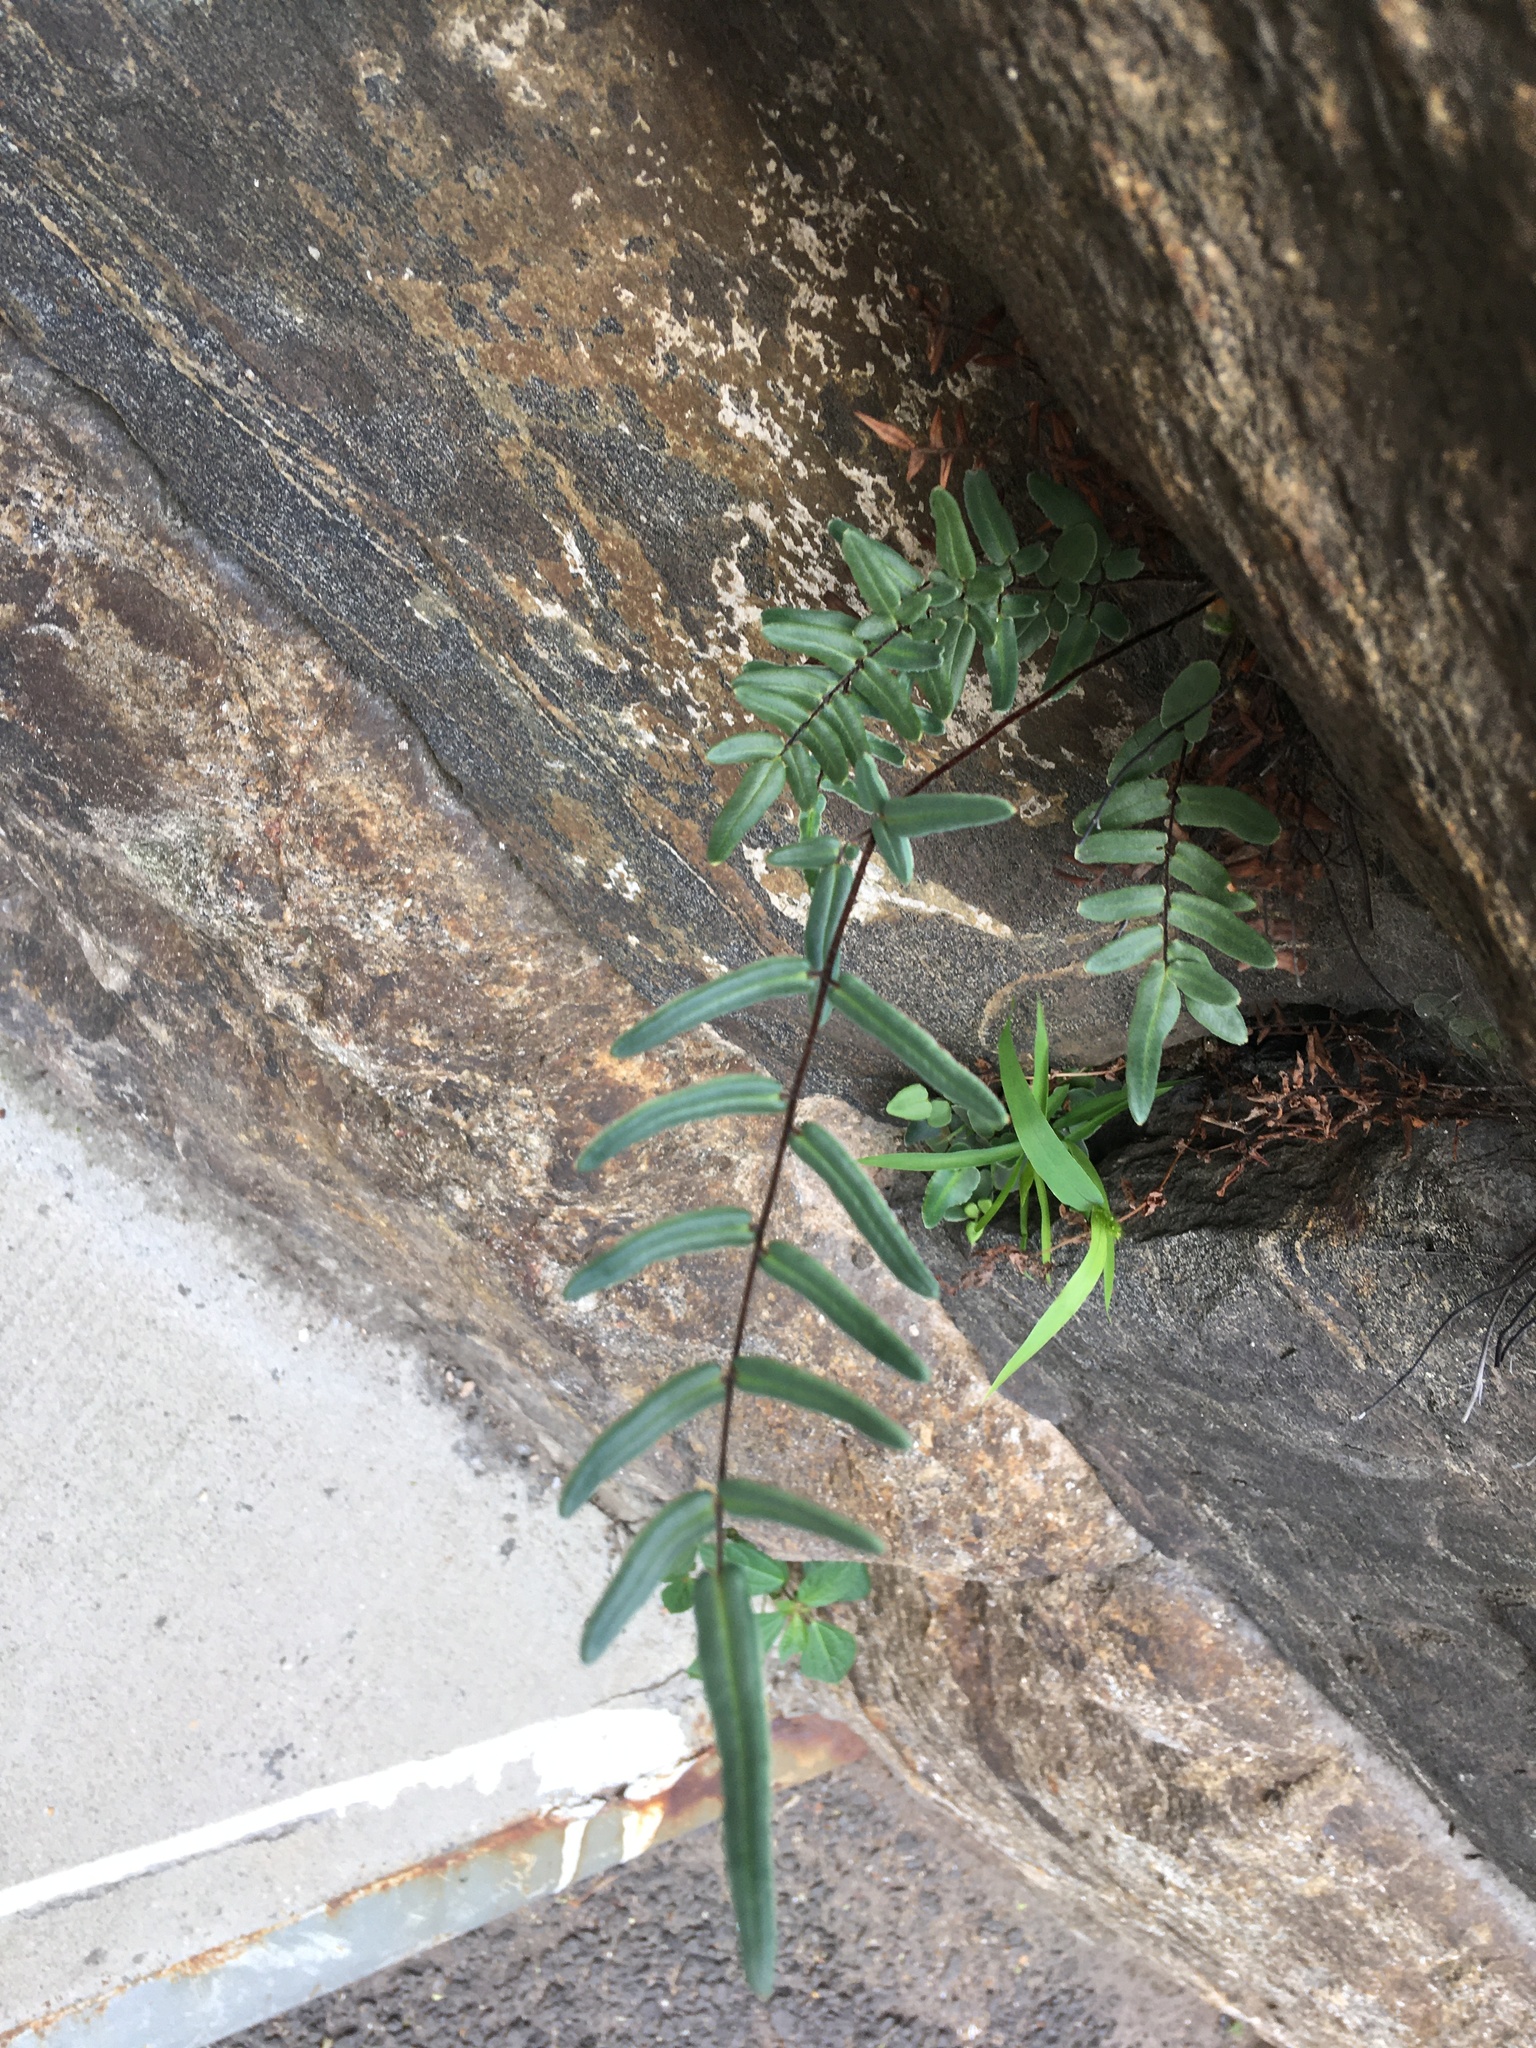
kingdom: Plantae
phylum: Tracheophyta
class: Polypodiopsida
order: Polypodiales
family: Pteridaceae
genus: Pellaea
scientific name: Pellaea atropurpurea
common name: Hairy cliffbrake
